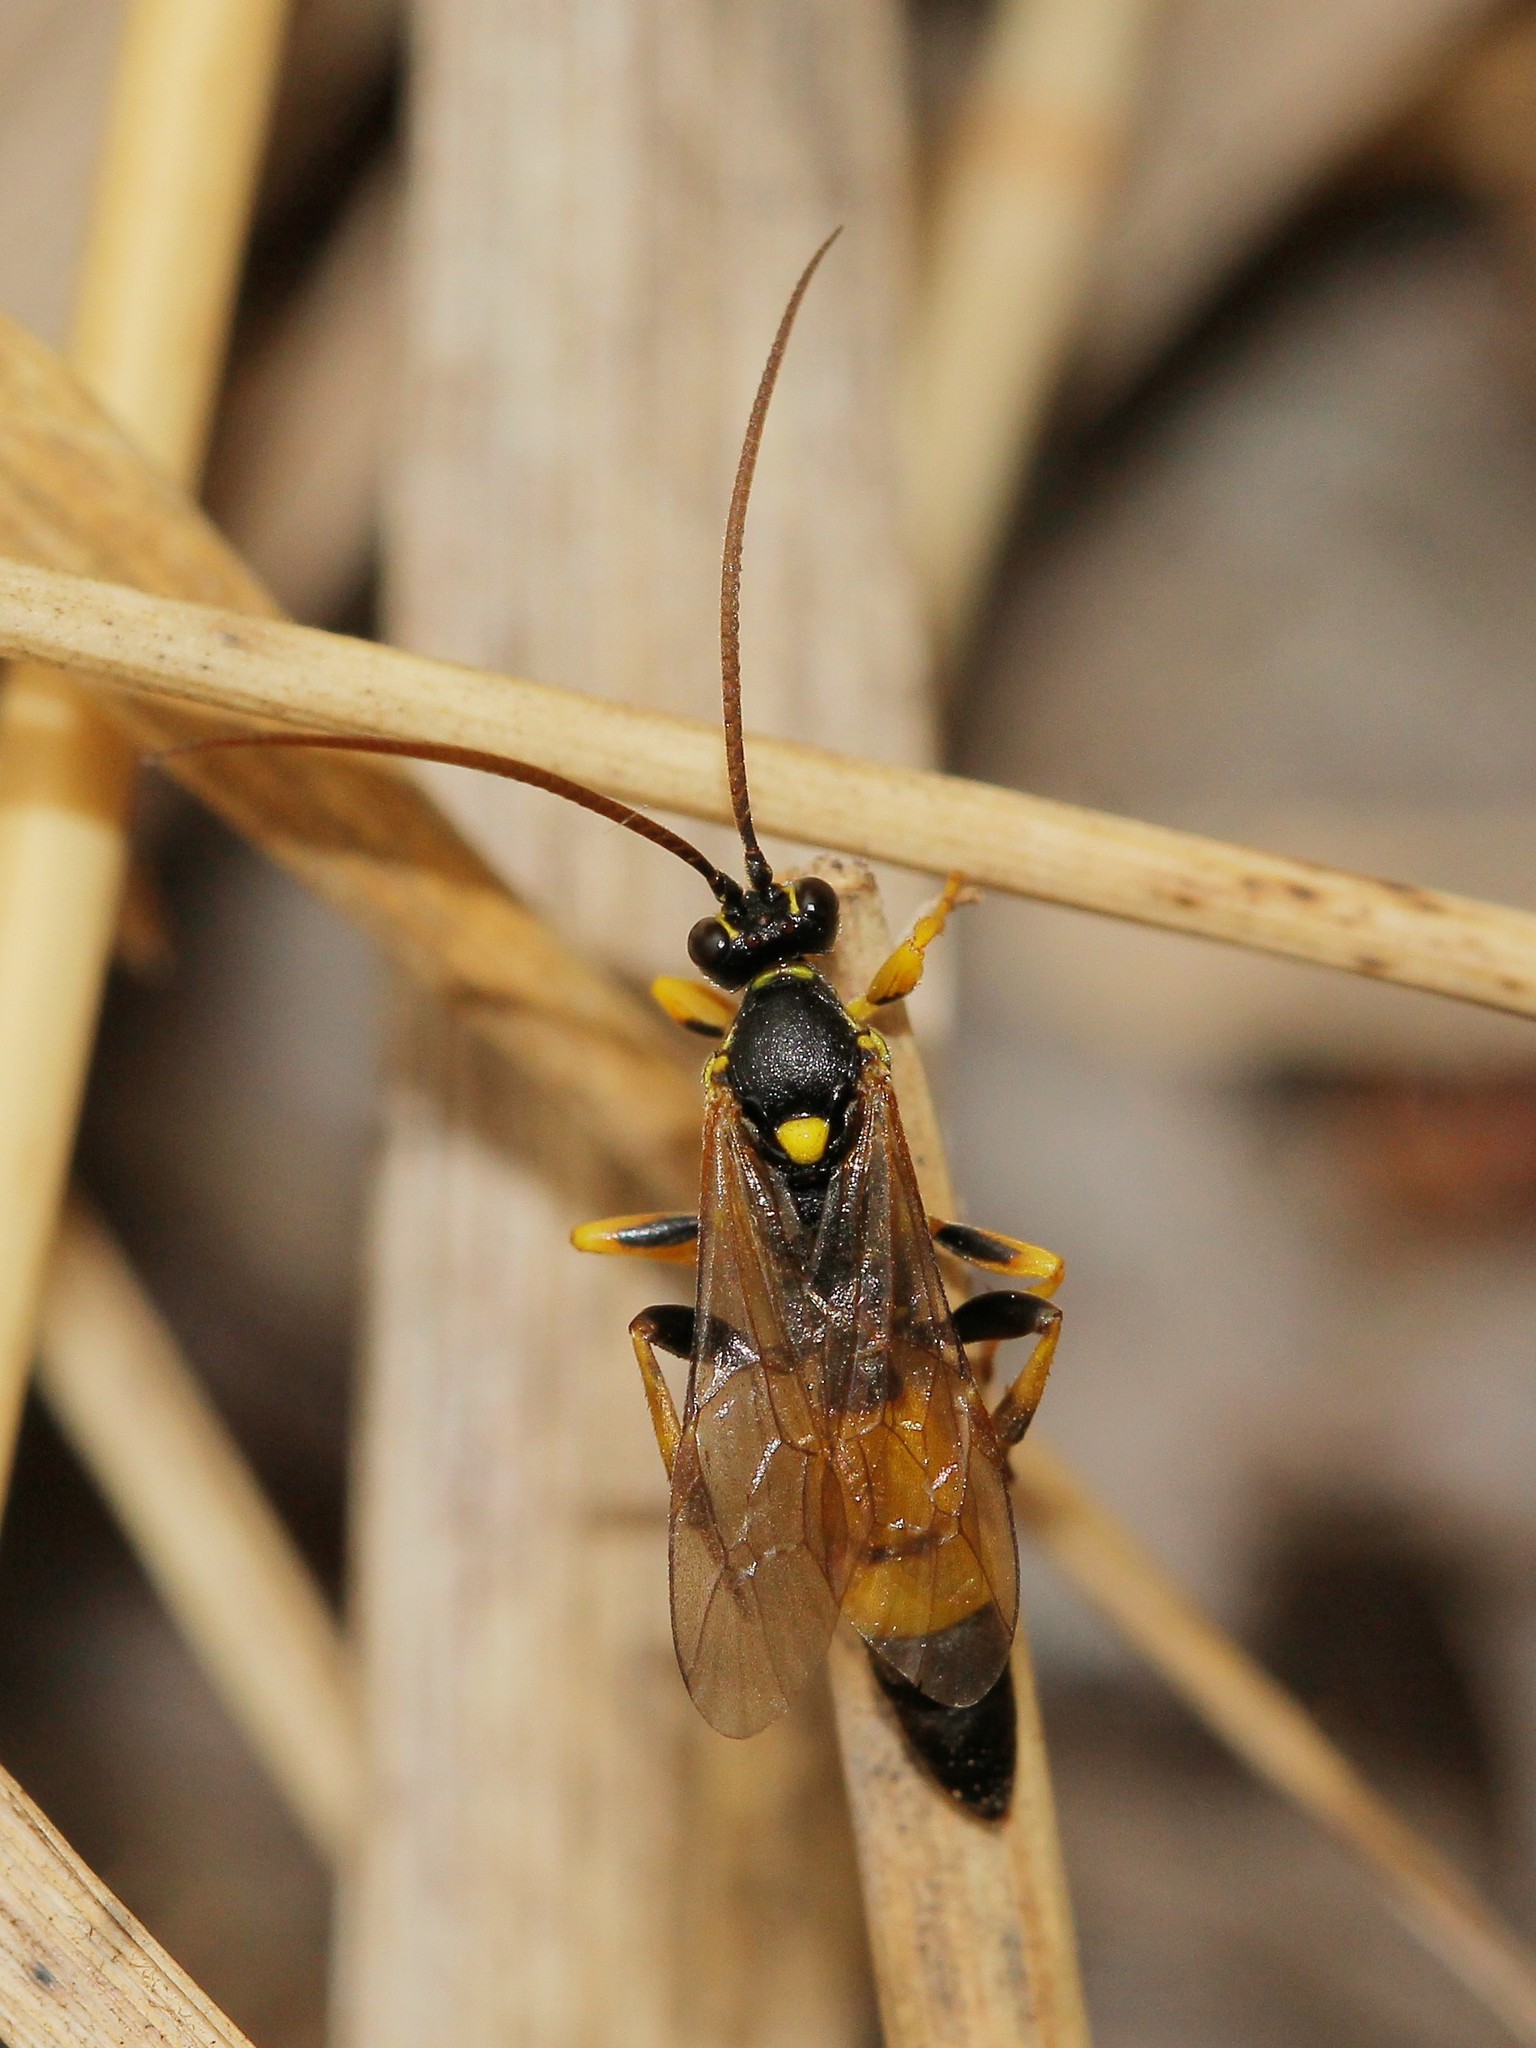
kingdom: Animalia
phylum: Arthropoda
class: Insecta
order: Hymenoptera
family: Ichneumonidae
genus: Spilothyrateles
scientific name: Spilothyrateles illuminatorius
